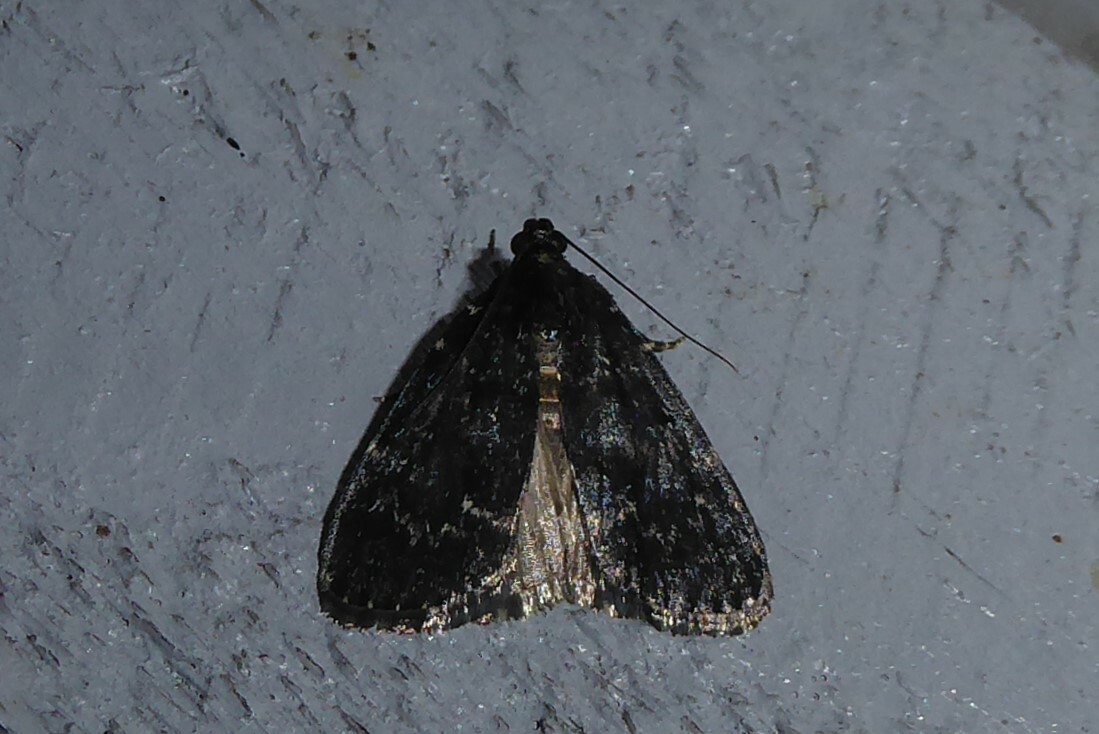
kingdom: Animalia
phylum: Arthropoda
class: Insecta
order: Lepidoptera
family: Pyralidae
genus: Stericta
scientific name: Stericta carbonalis
